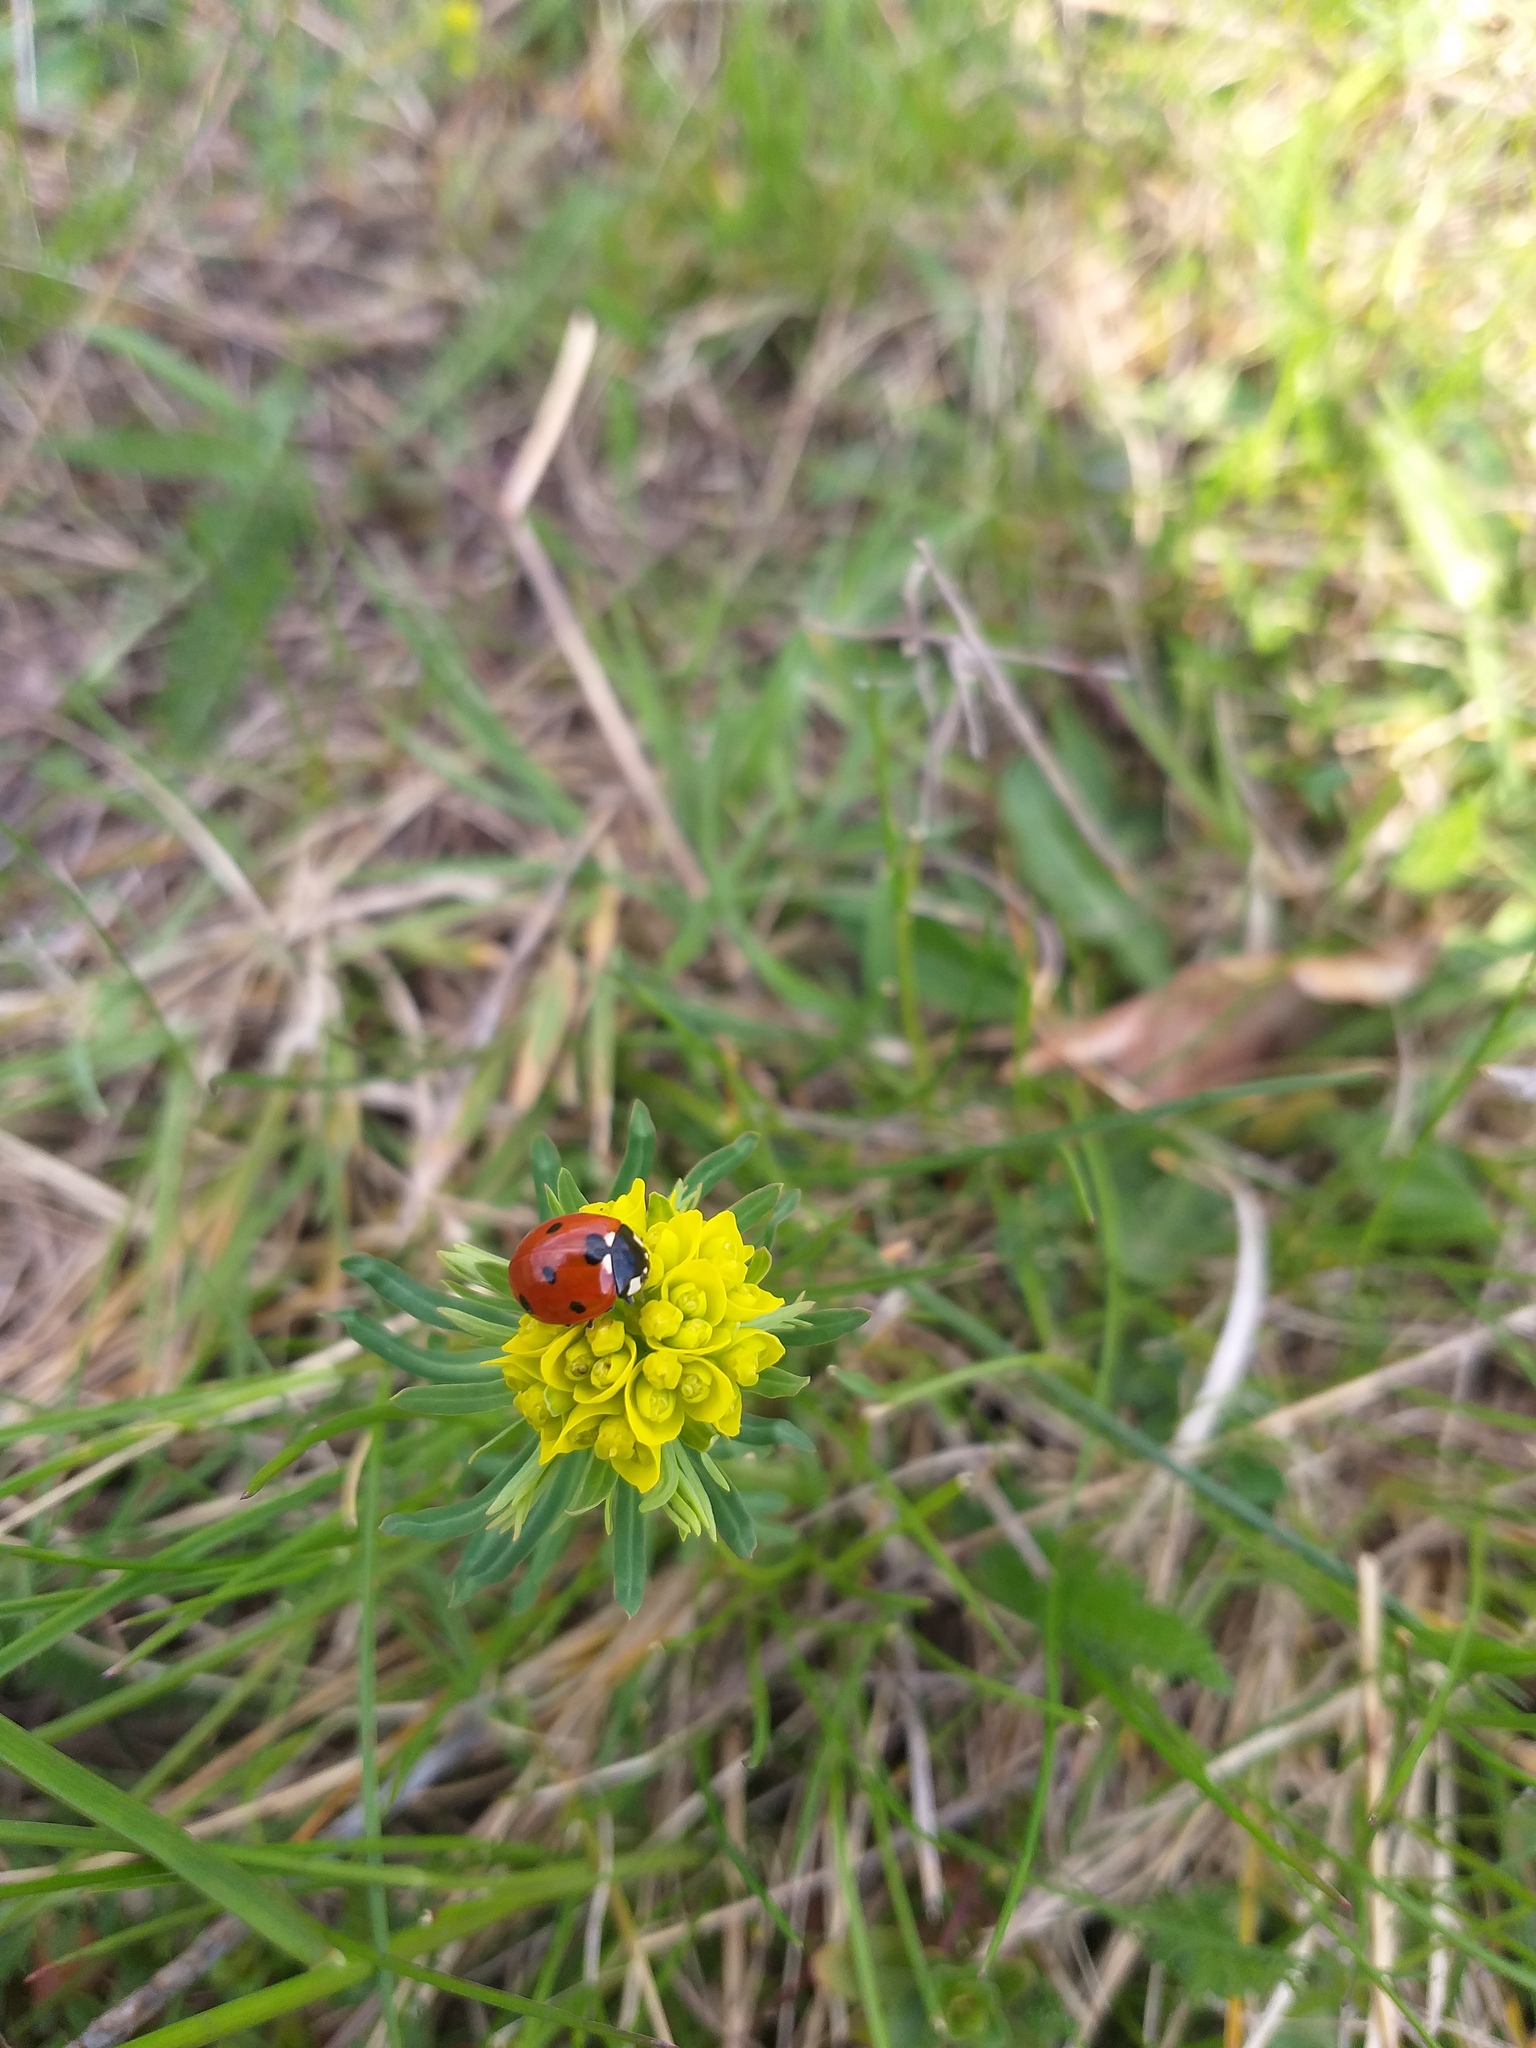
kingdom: Animalia
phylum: Arthropoda
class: Insecta
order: Coleoptera
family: Coccinellidae
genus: Coccinella
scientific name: Coccinella septempunctata
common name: Sevenspotted lady beetle
